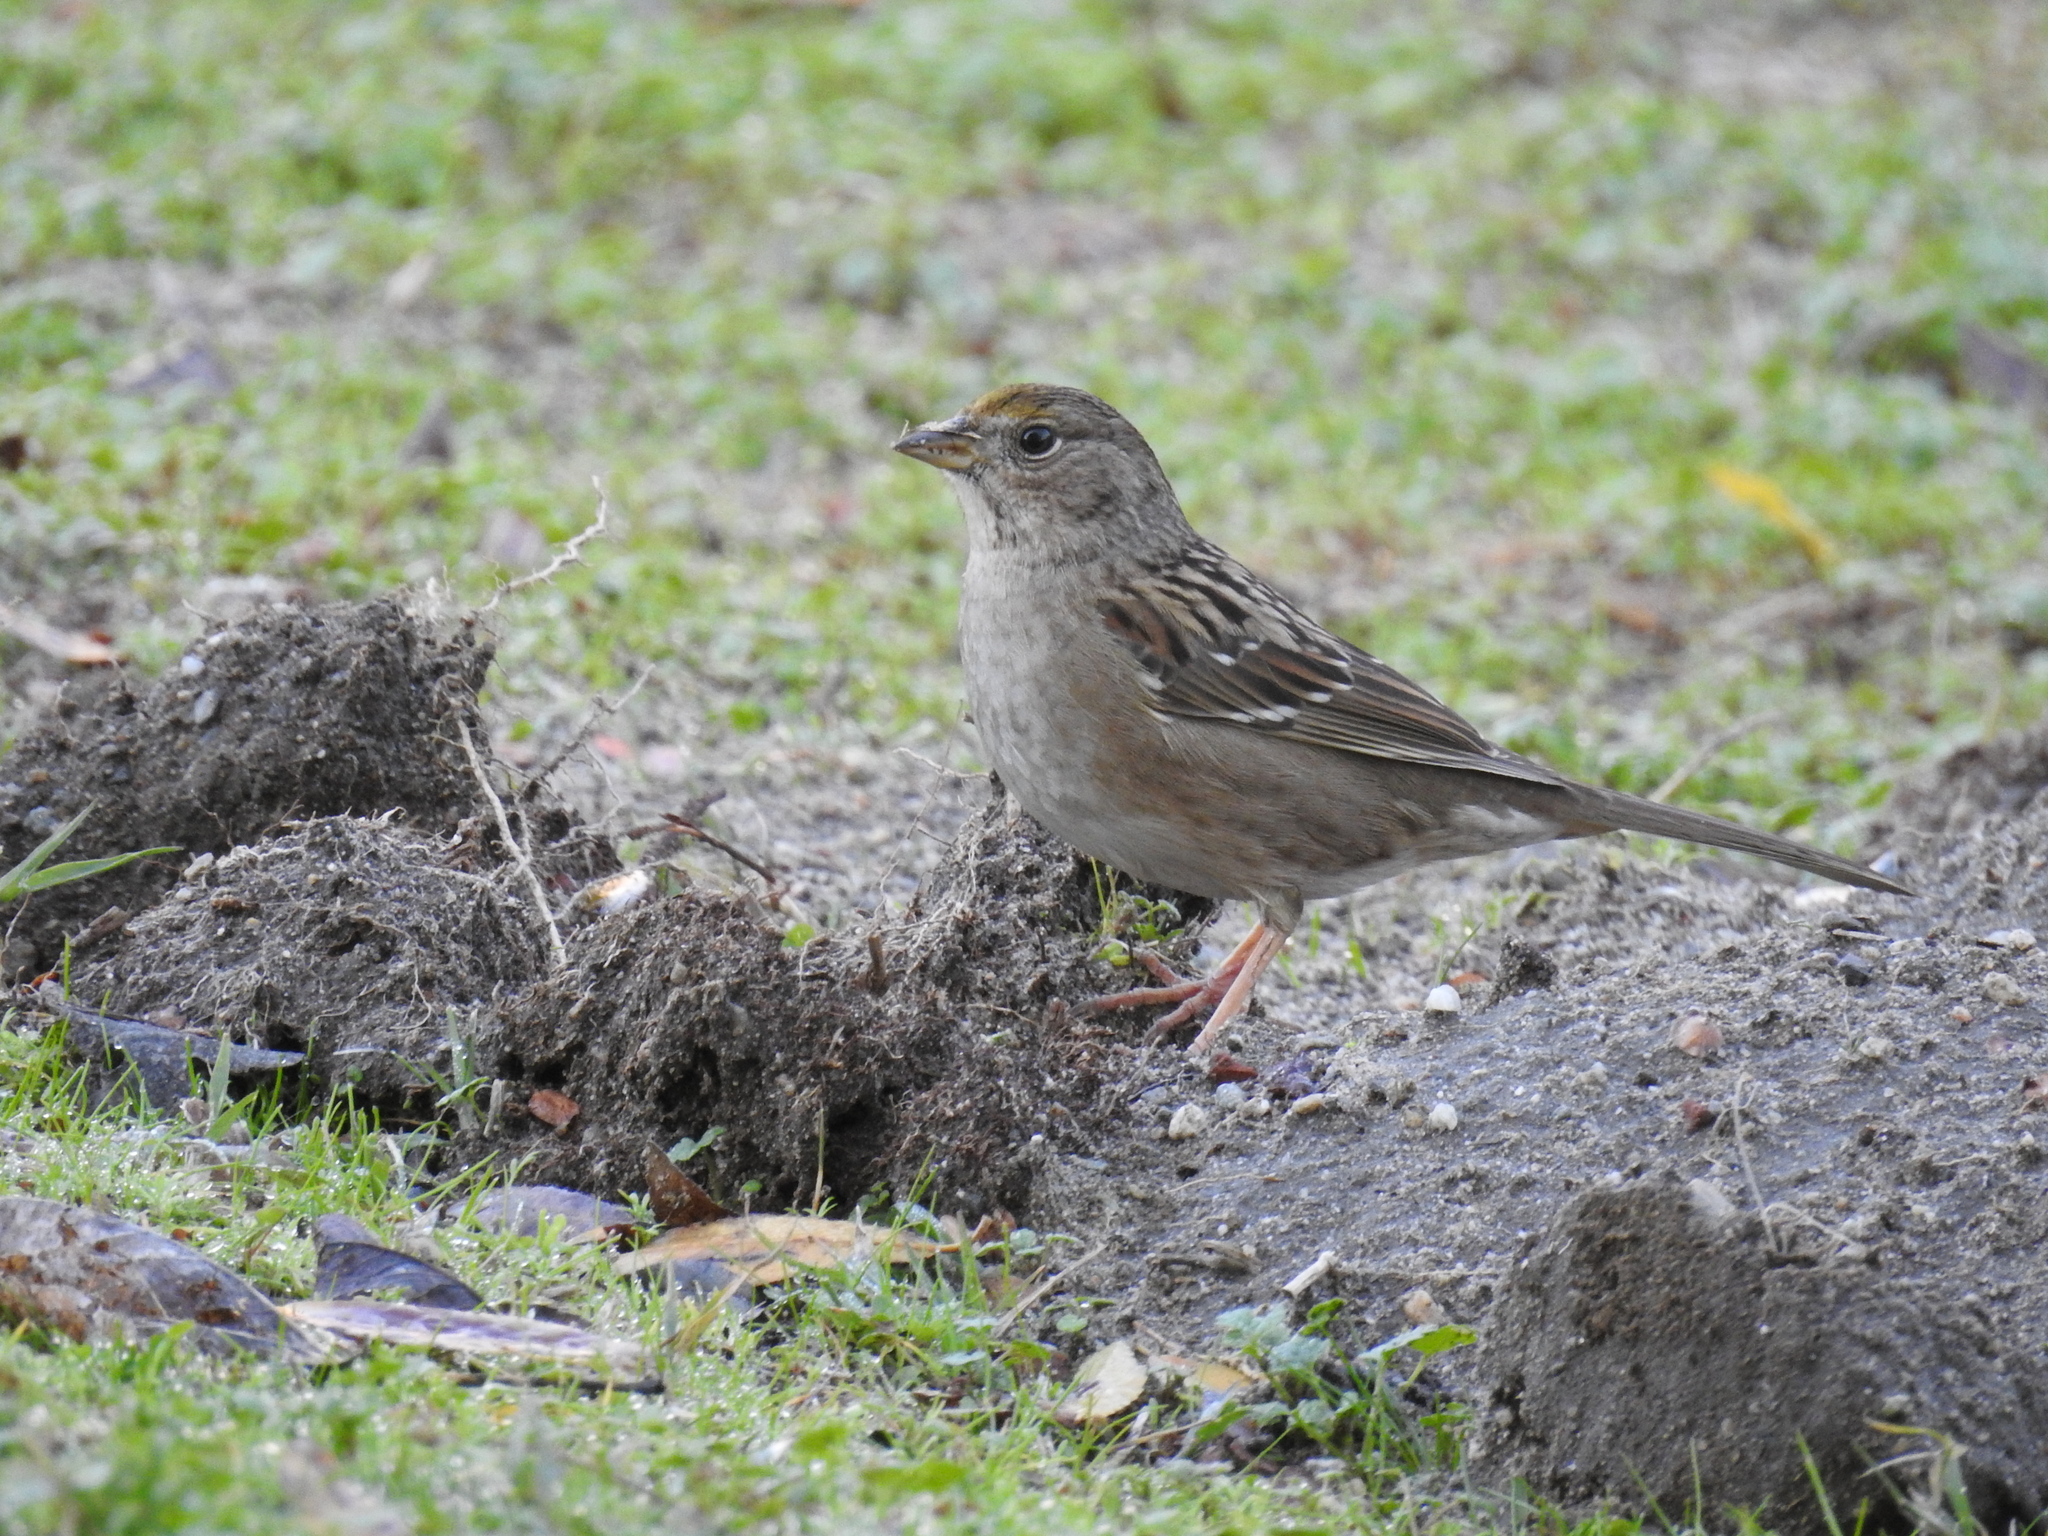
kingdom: Animalia
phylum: Chordata
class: Aves
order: Passeriformes
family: Passerellidae
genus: Zonotrichia
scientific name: Zonotrichia atricapilla
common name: Golden-crowned sparrow
